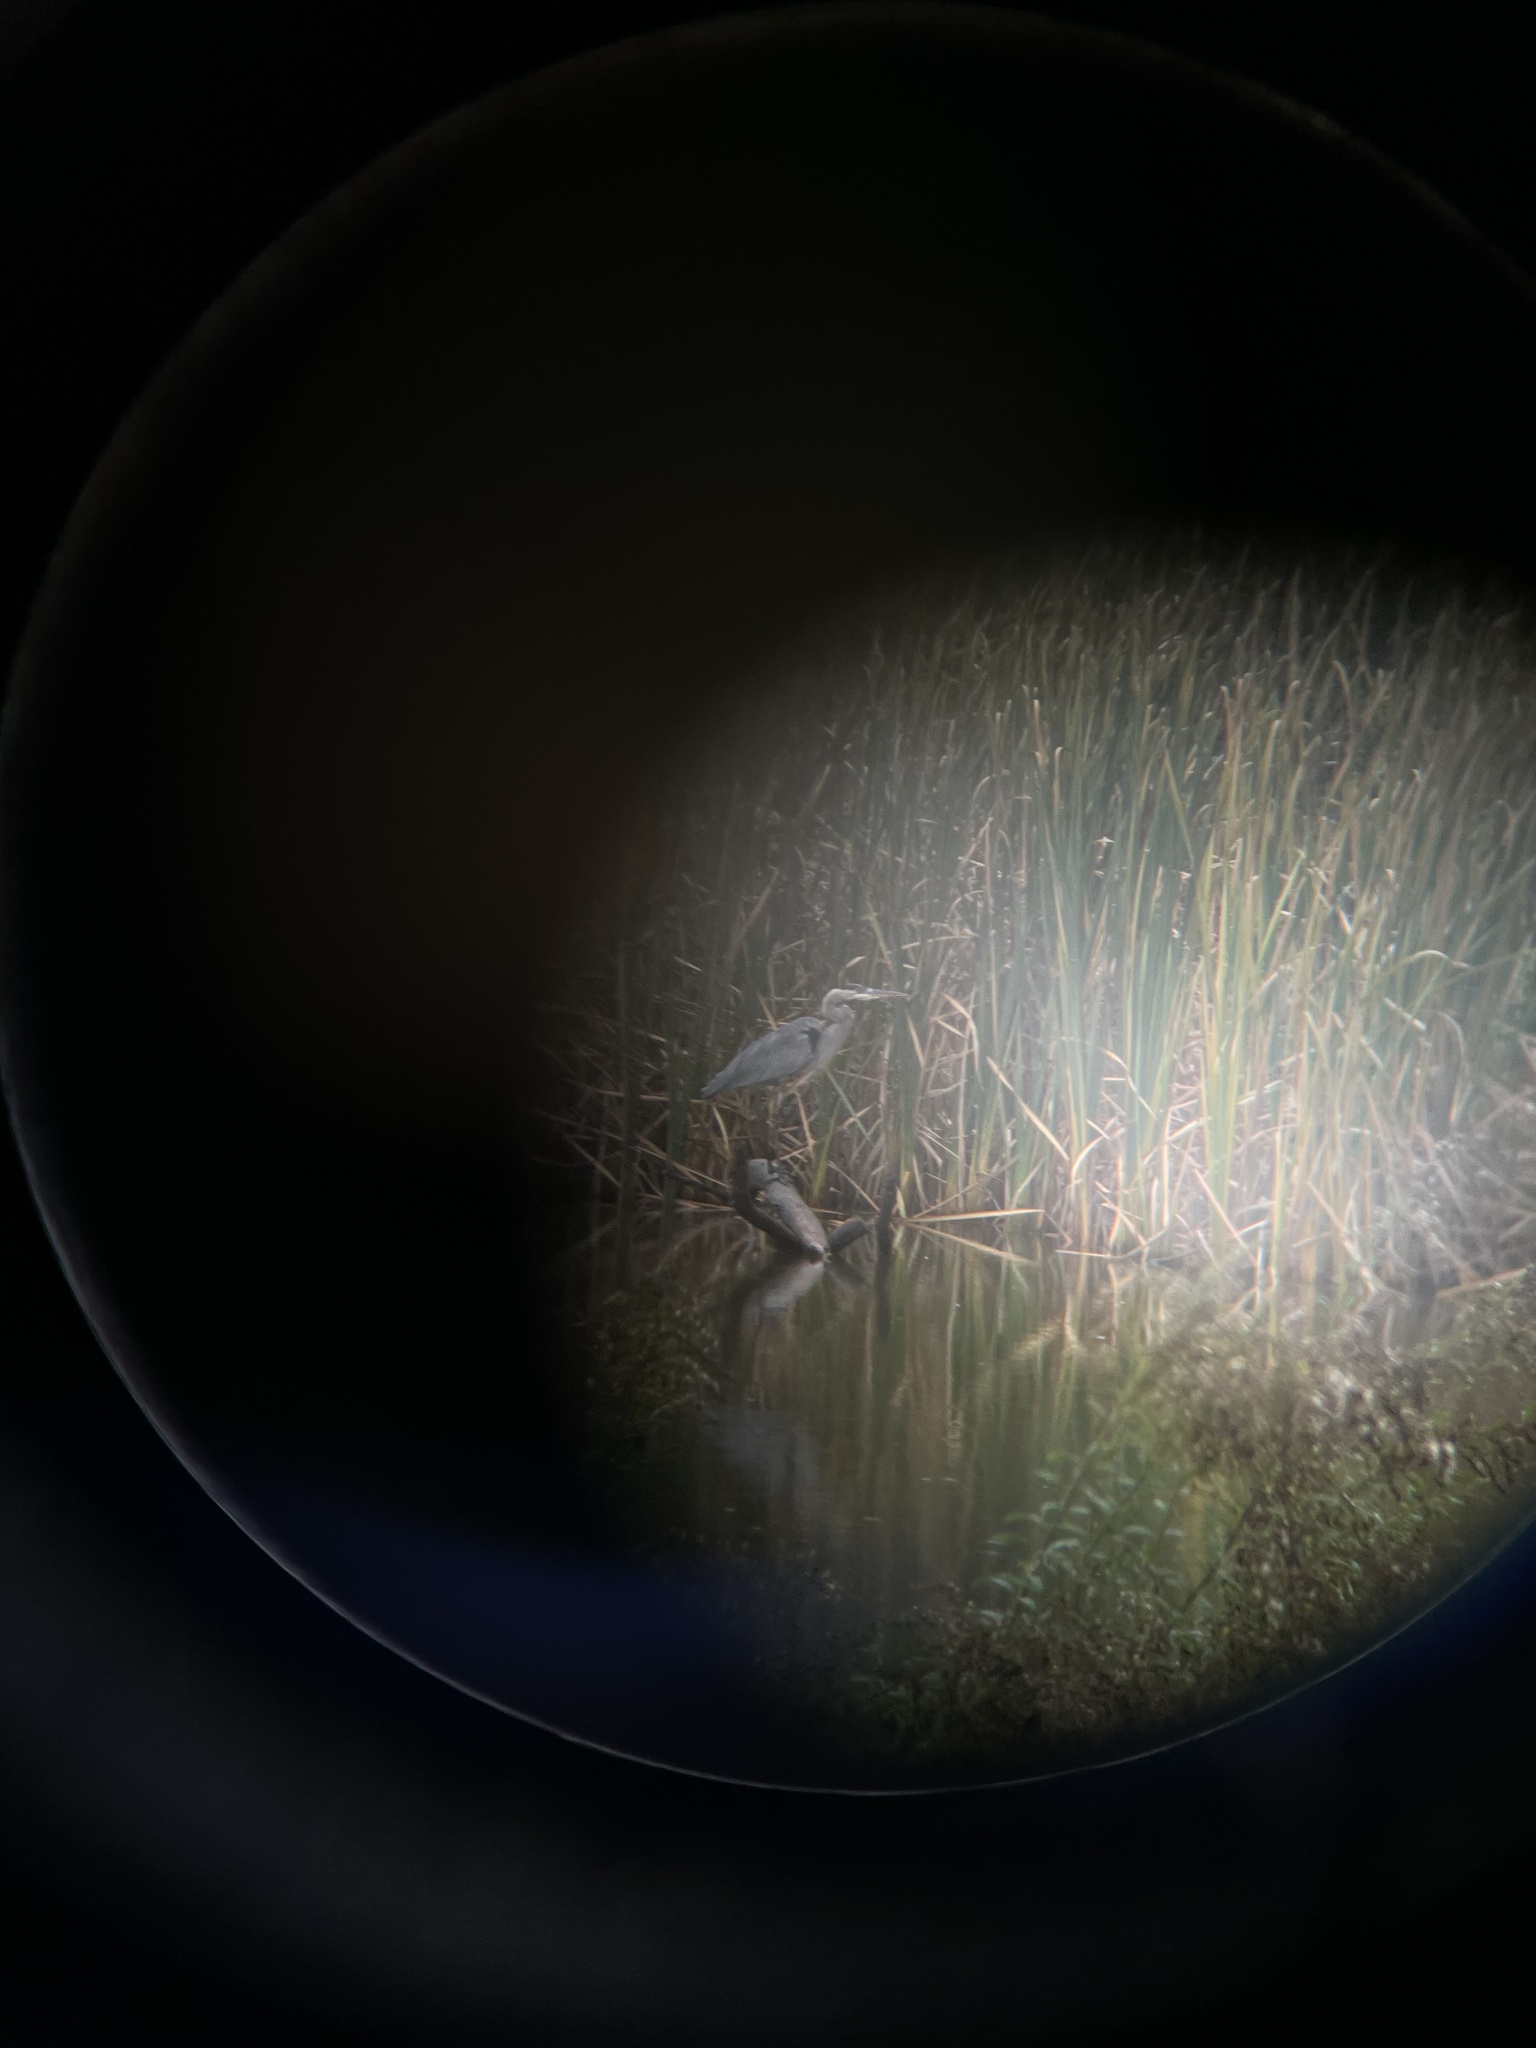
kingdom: Animalia
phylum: Chordata
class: Aves
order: Pelecaniformes
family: Ardeidae
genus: Ardea
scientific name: Ardea herodias
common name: Great blue heron
